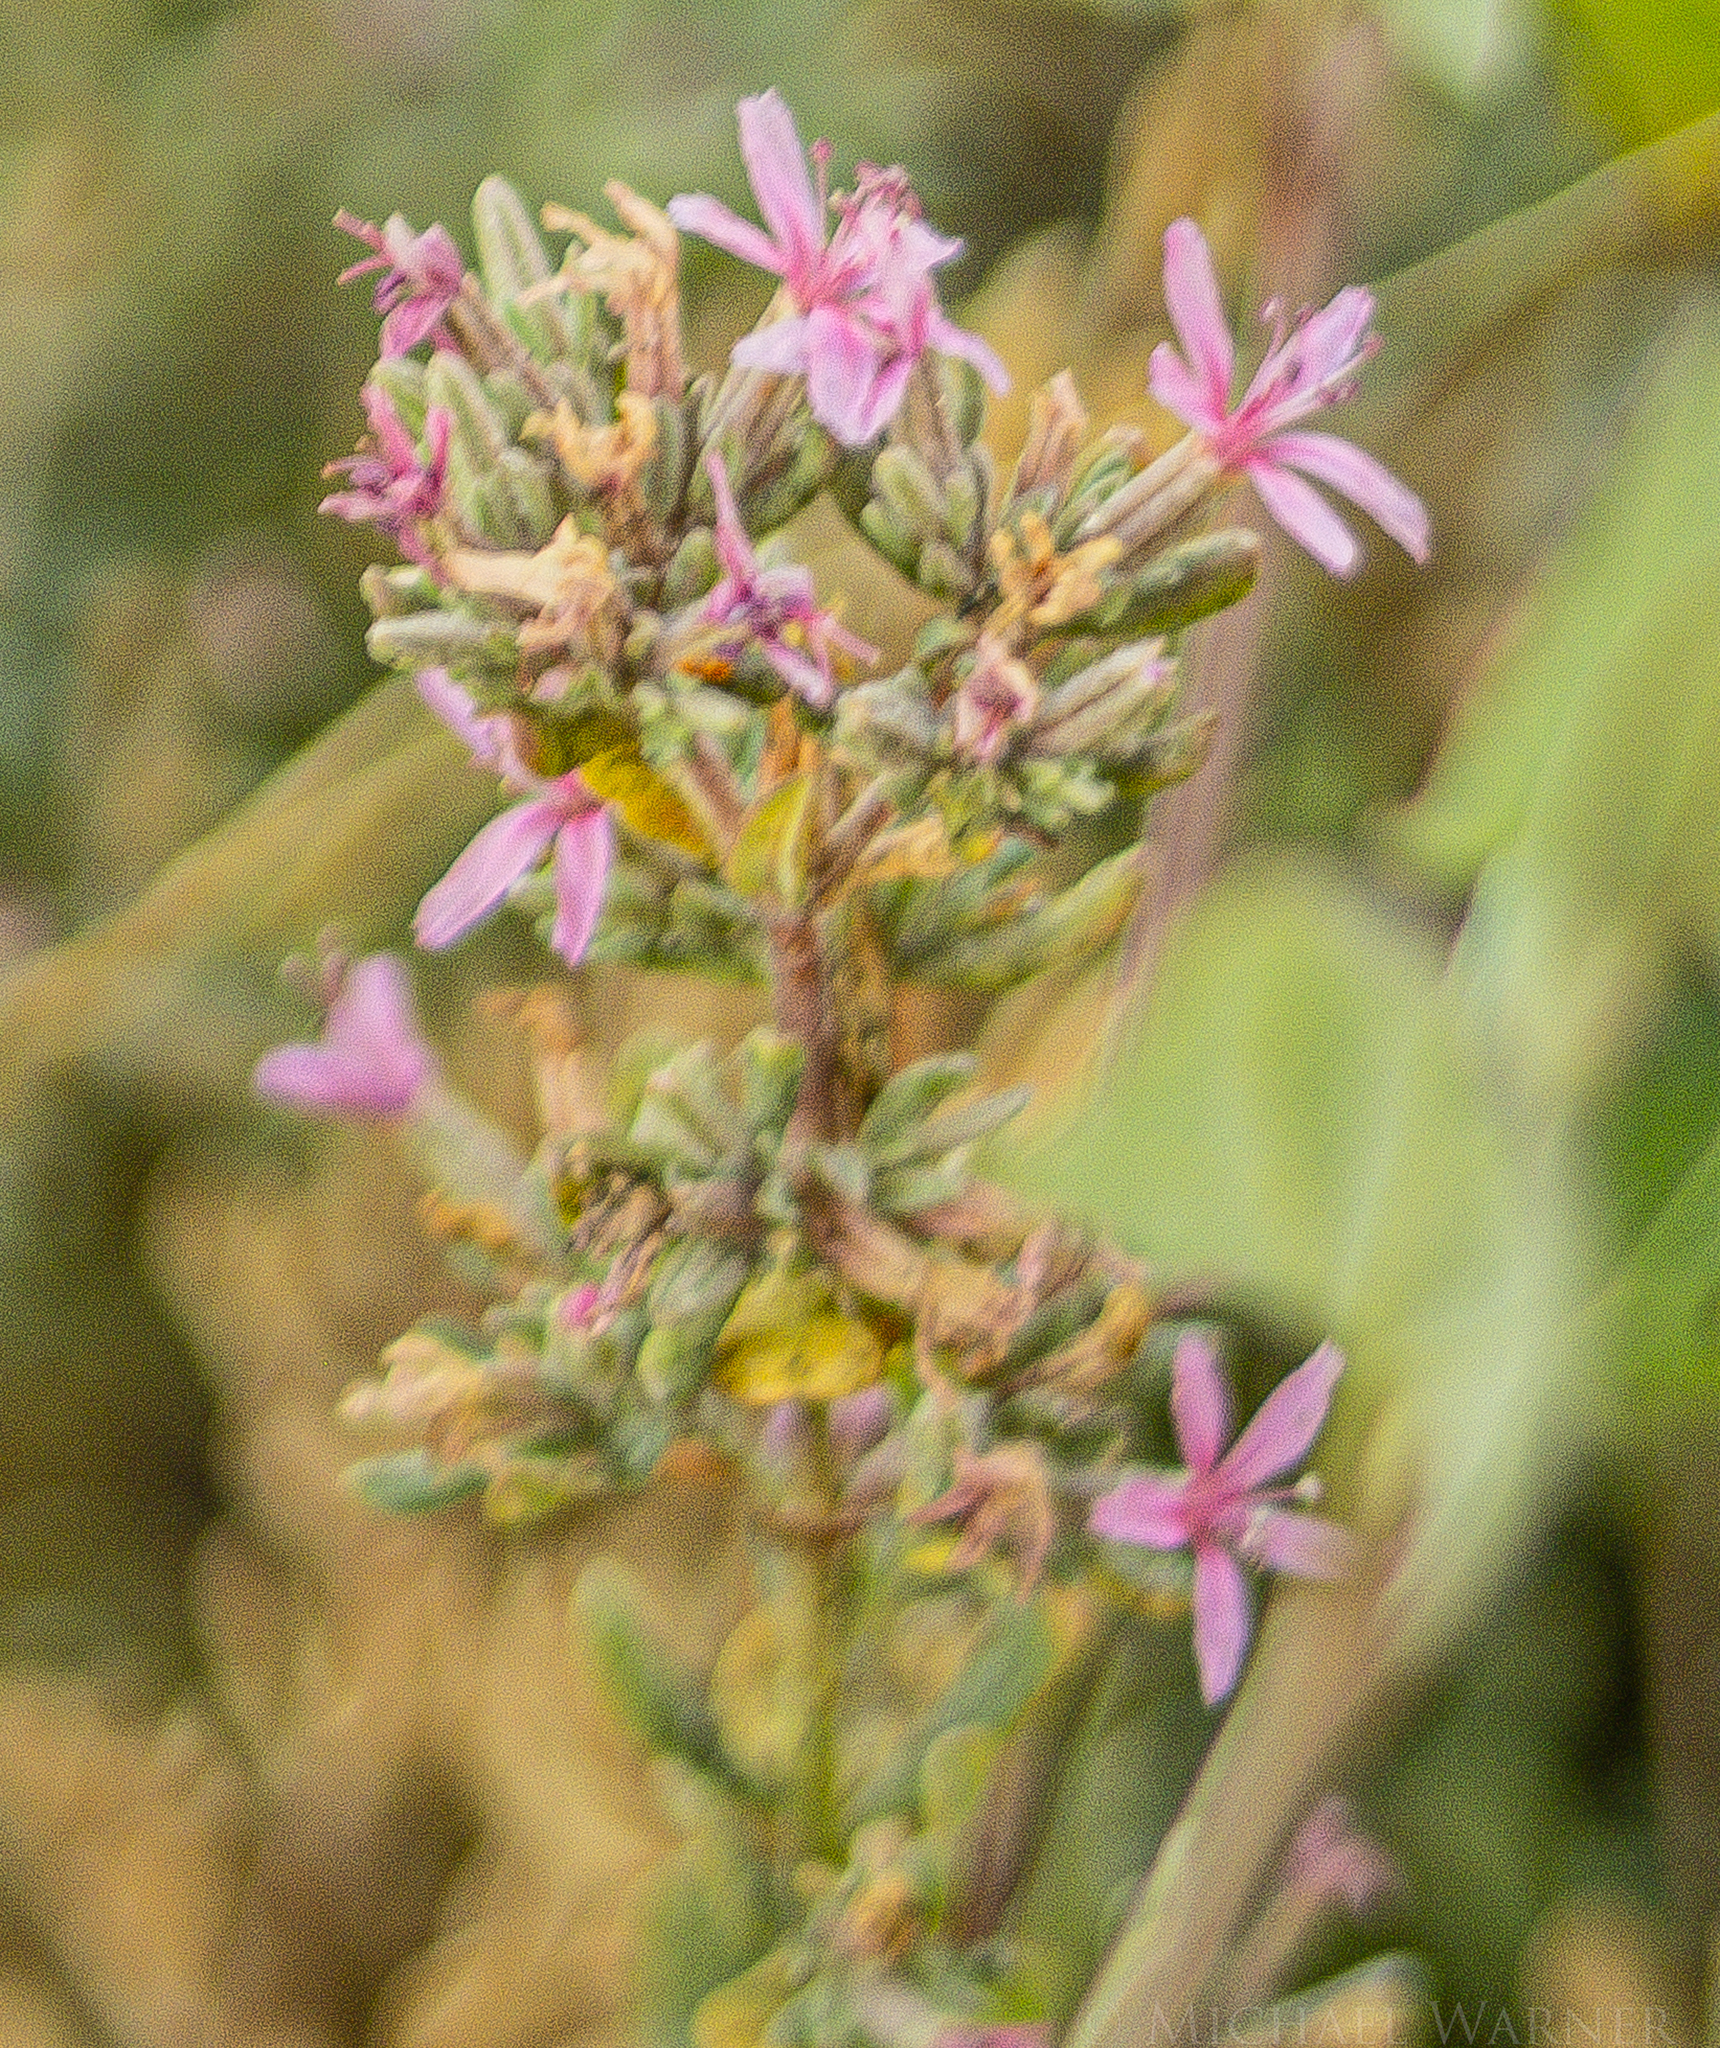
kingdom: Plantae
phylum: Tracheophyta
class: Magnoliopsida
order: Caryophyllales
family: Frankeniaceae
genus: Frankenia
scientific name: Frankenia salina
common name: Alkali seaheath
